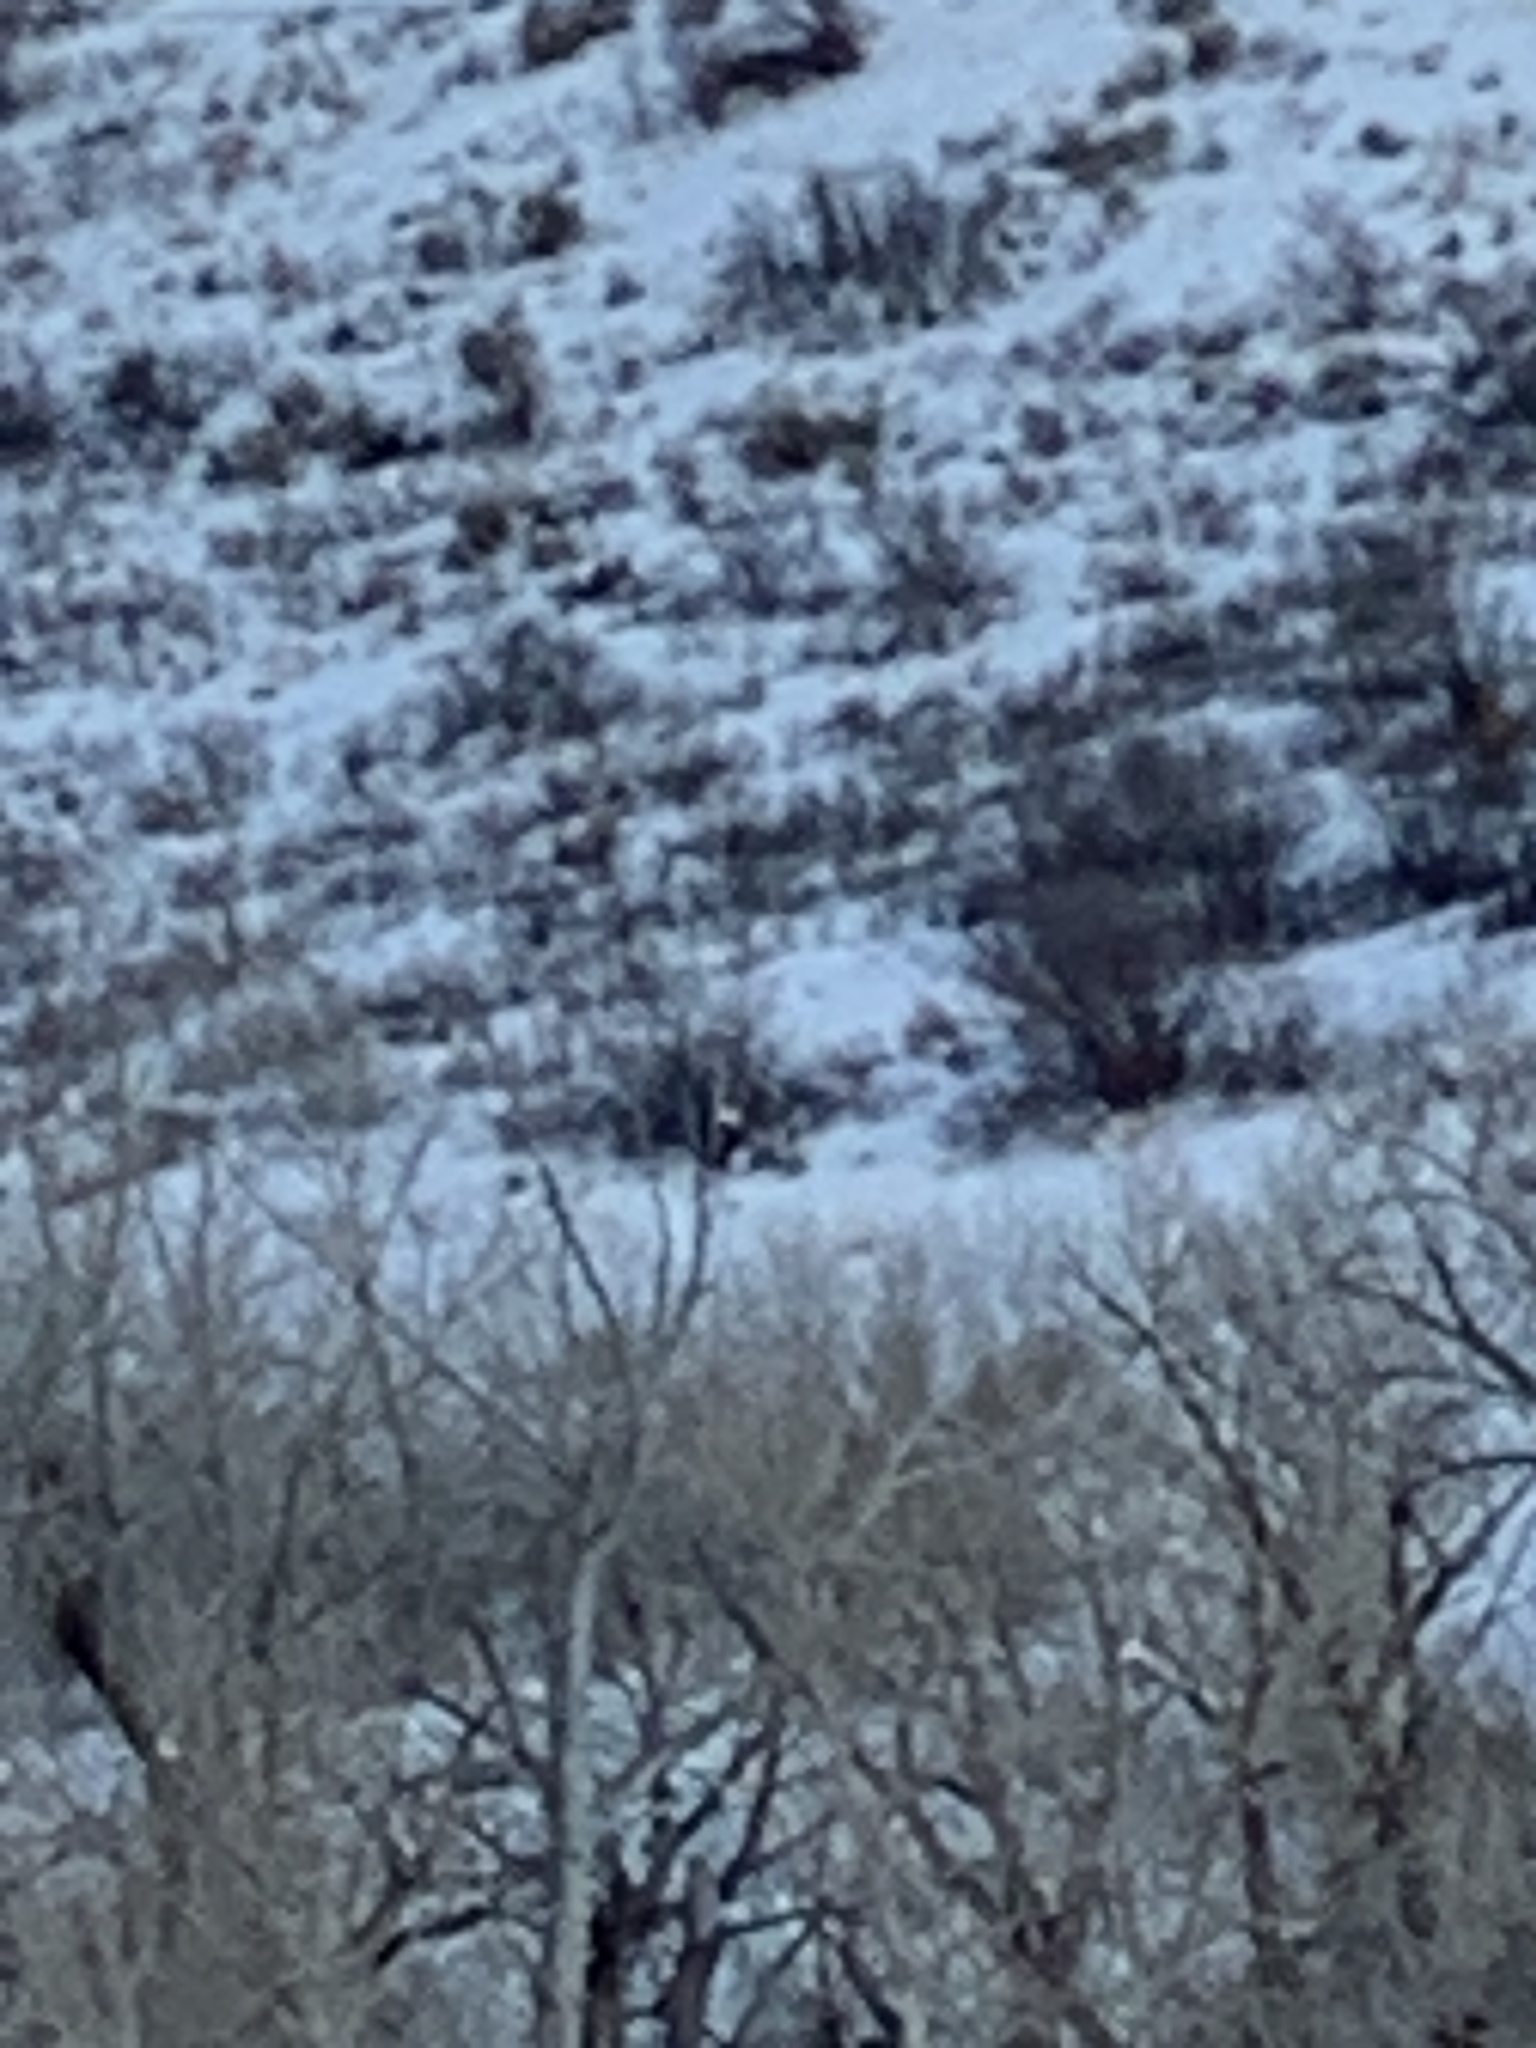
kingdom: Animalia
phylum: Chordata
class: Aves
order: Accipitriformes
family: Accipitridae
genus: Haliaeetus
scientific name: Haliaeetus leucocephalus
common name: Bald eagle
